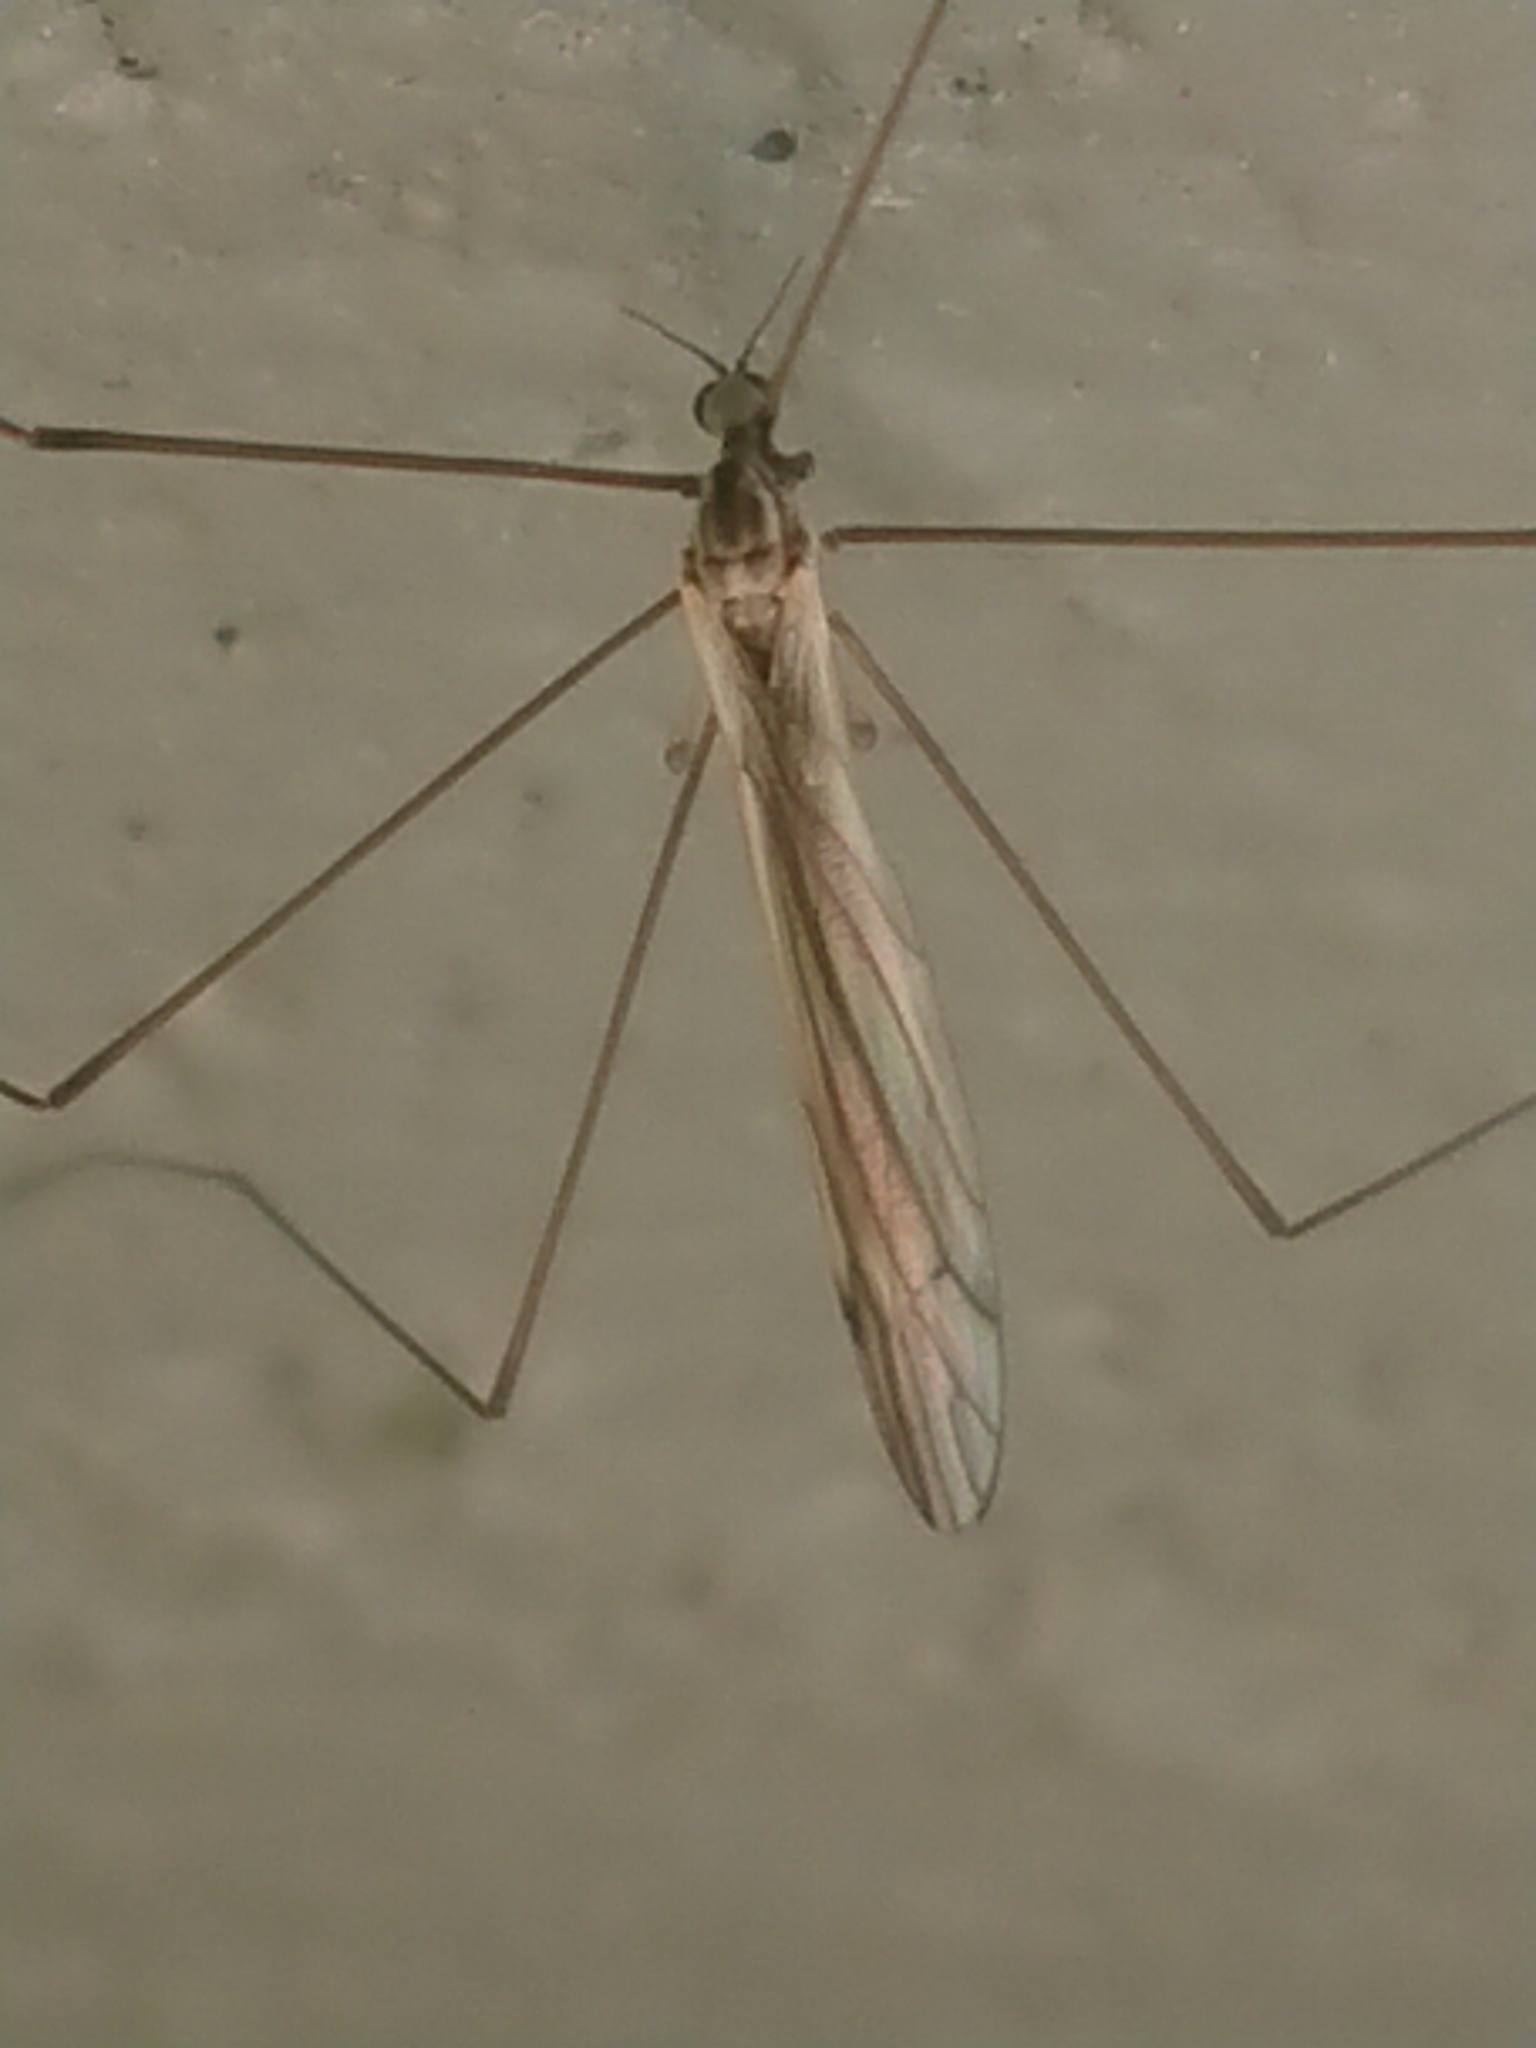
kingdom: Animalia
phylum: Arthropoda
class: Insecta
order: Diptera
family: Limoniidae
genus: Dicranomyia
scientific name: Dicranomyia aegrotans
